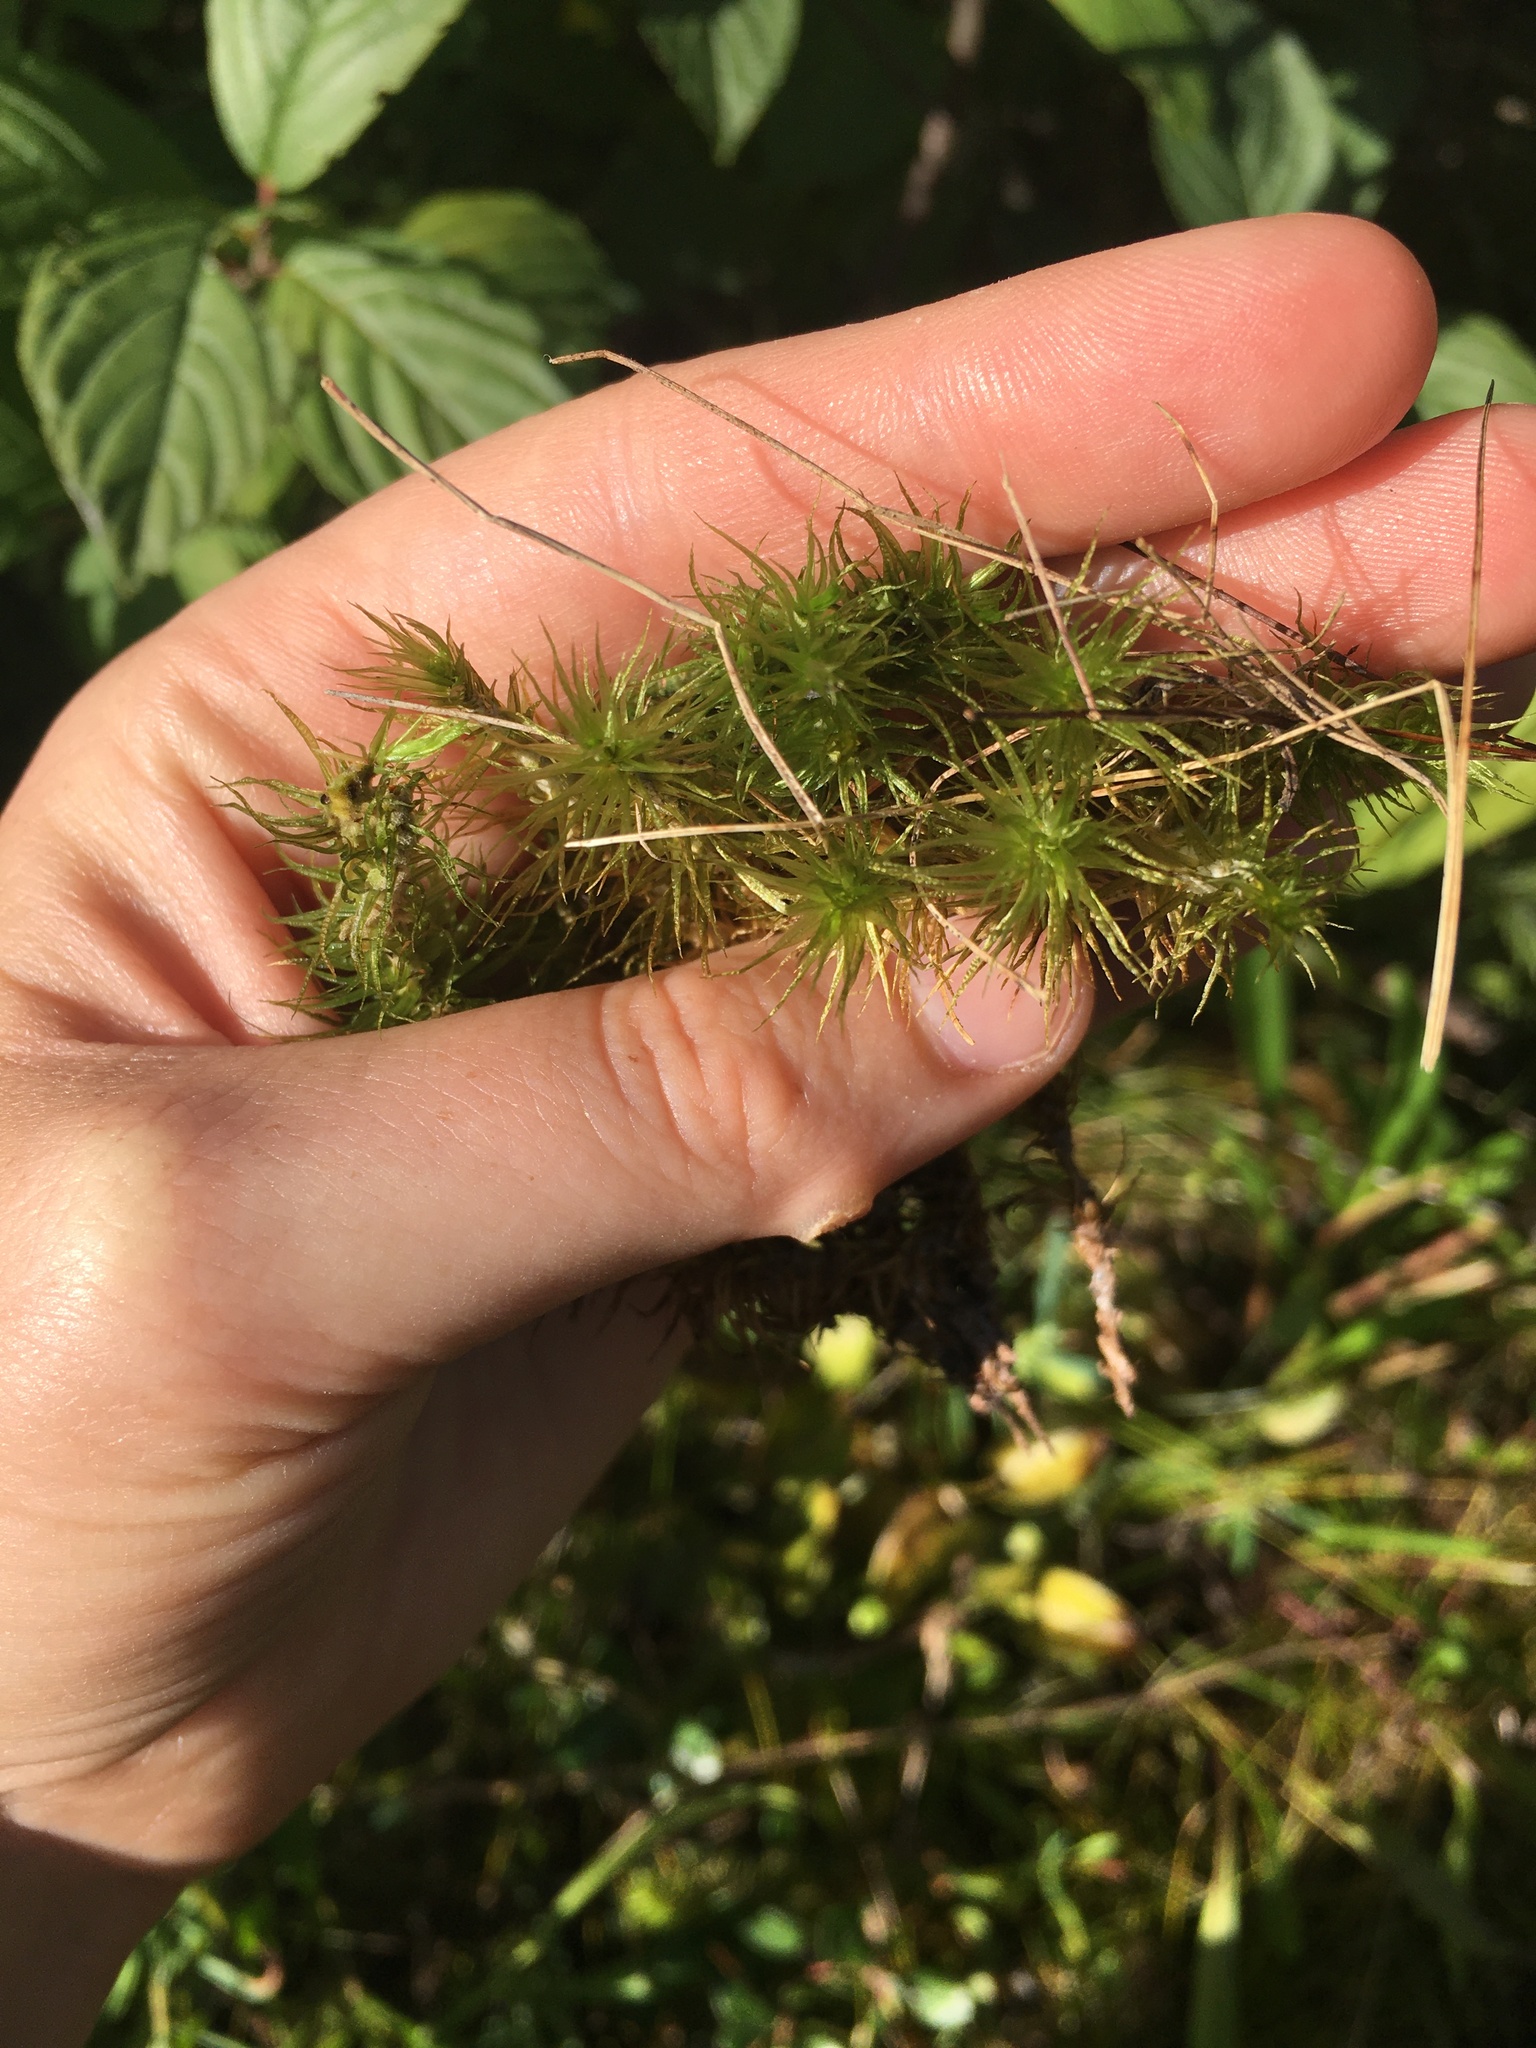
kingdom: Plantae
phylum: Bryophyta
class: Bryopsida
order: Dicranales
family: Dicranaceae
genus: Dicranum
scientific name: Dicranum polysetum
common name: Rugose fork-moss
